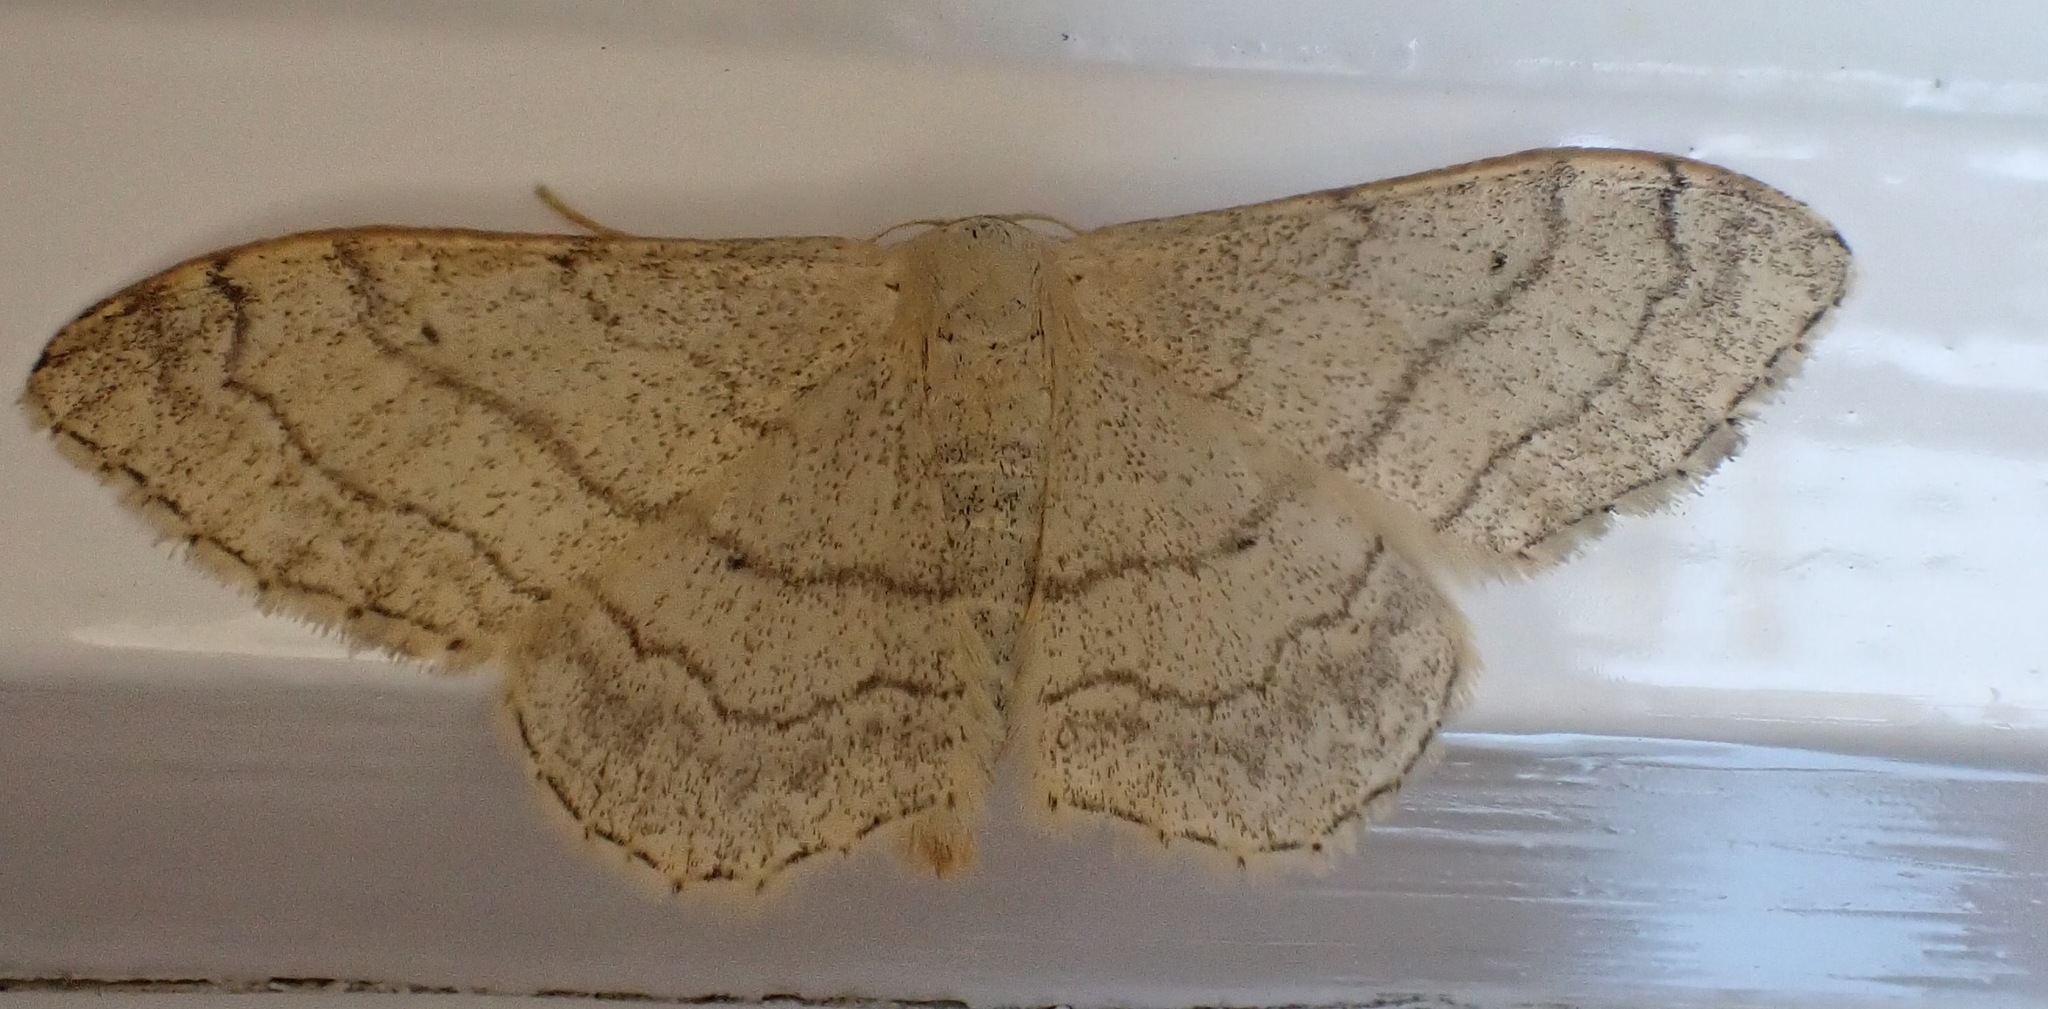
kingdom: Animalia
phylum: Arthropoda
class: Insecta
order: Lepidoptera
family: Geometridae
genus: Idaea
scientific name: Idaea aversata
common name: Riband wave
